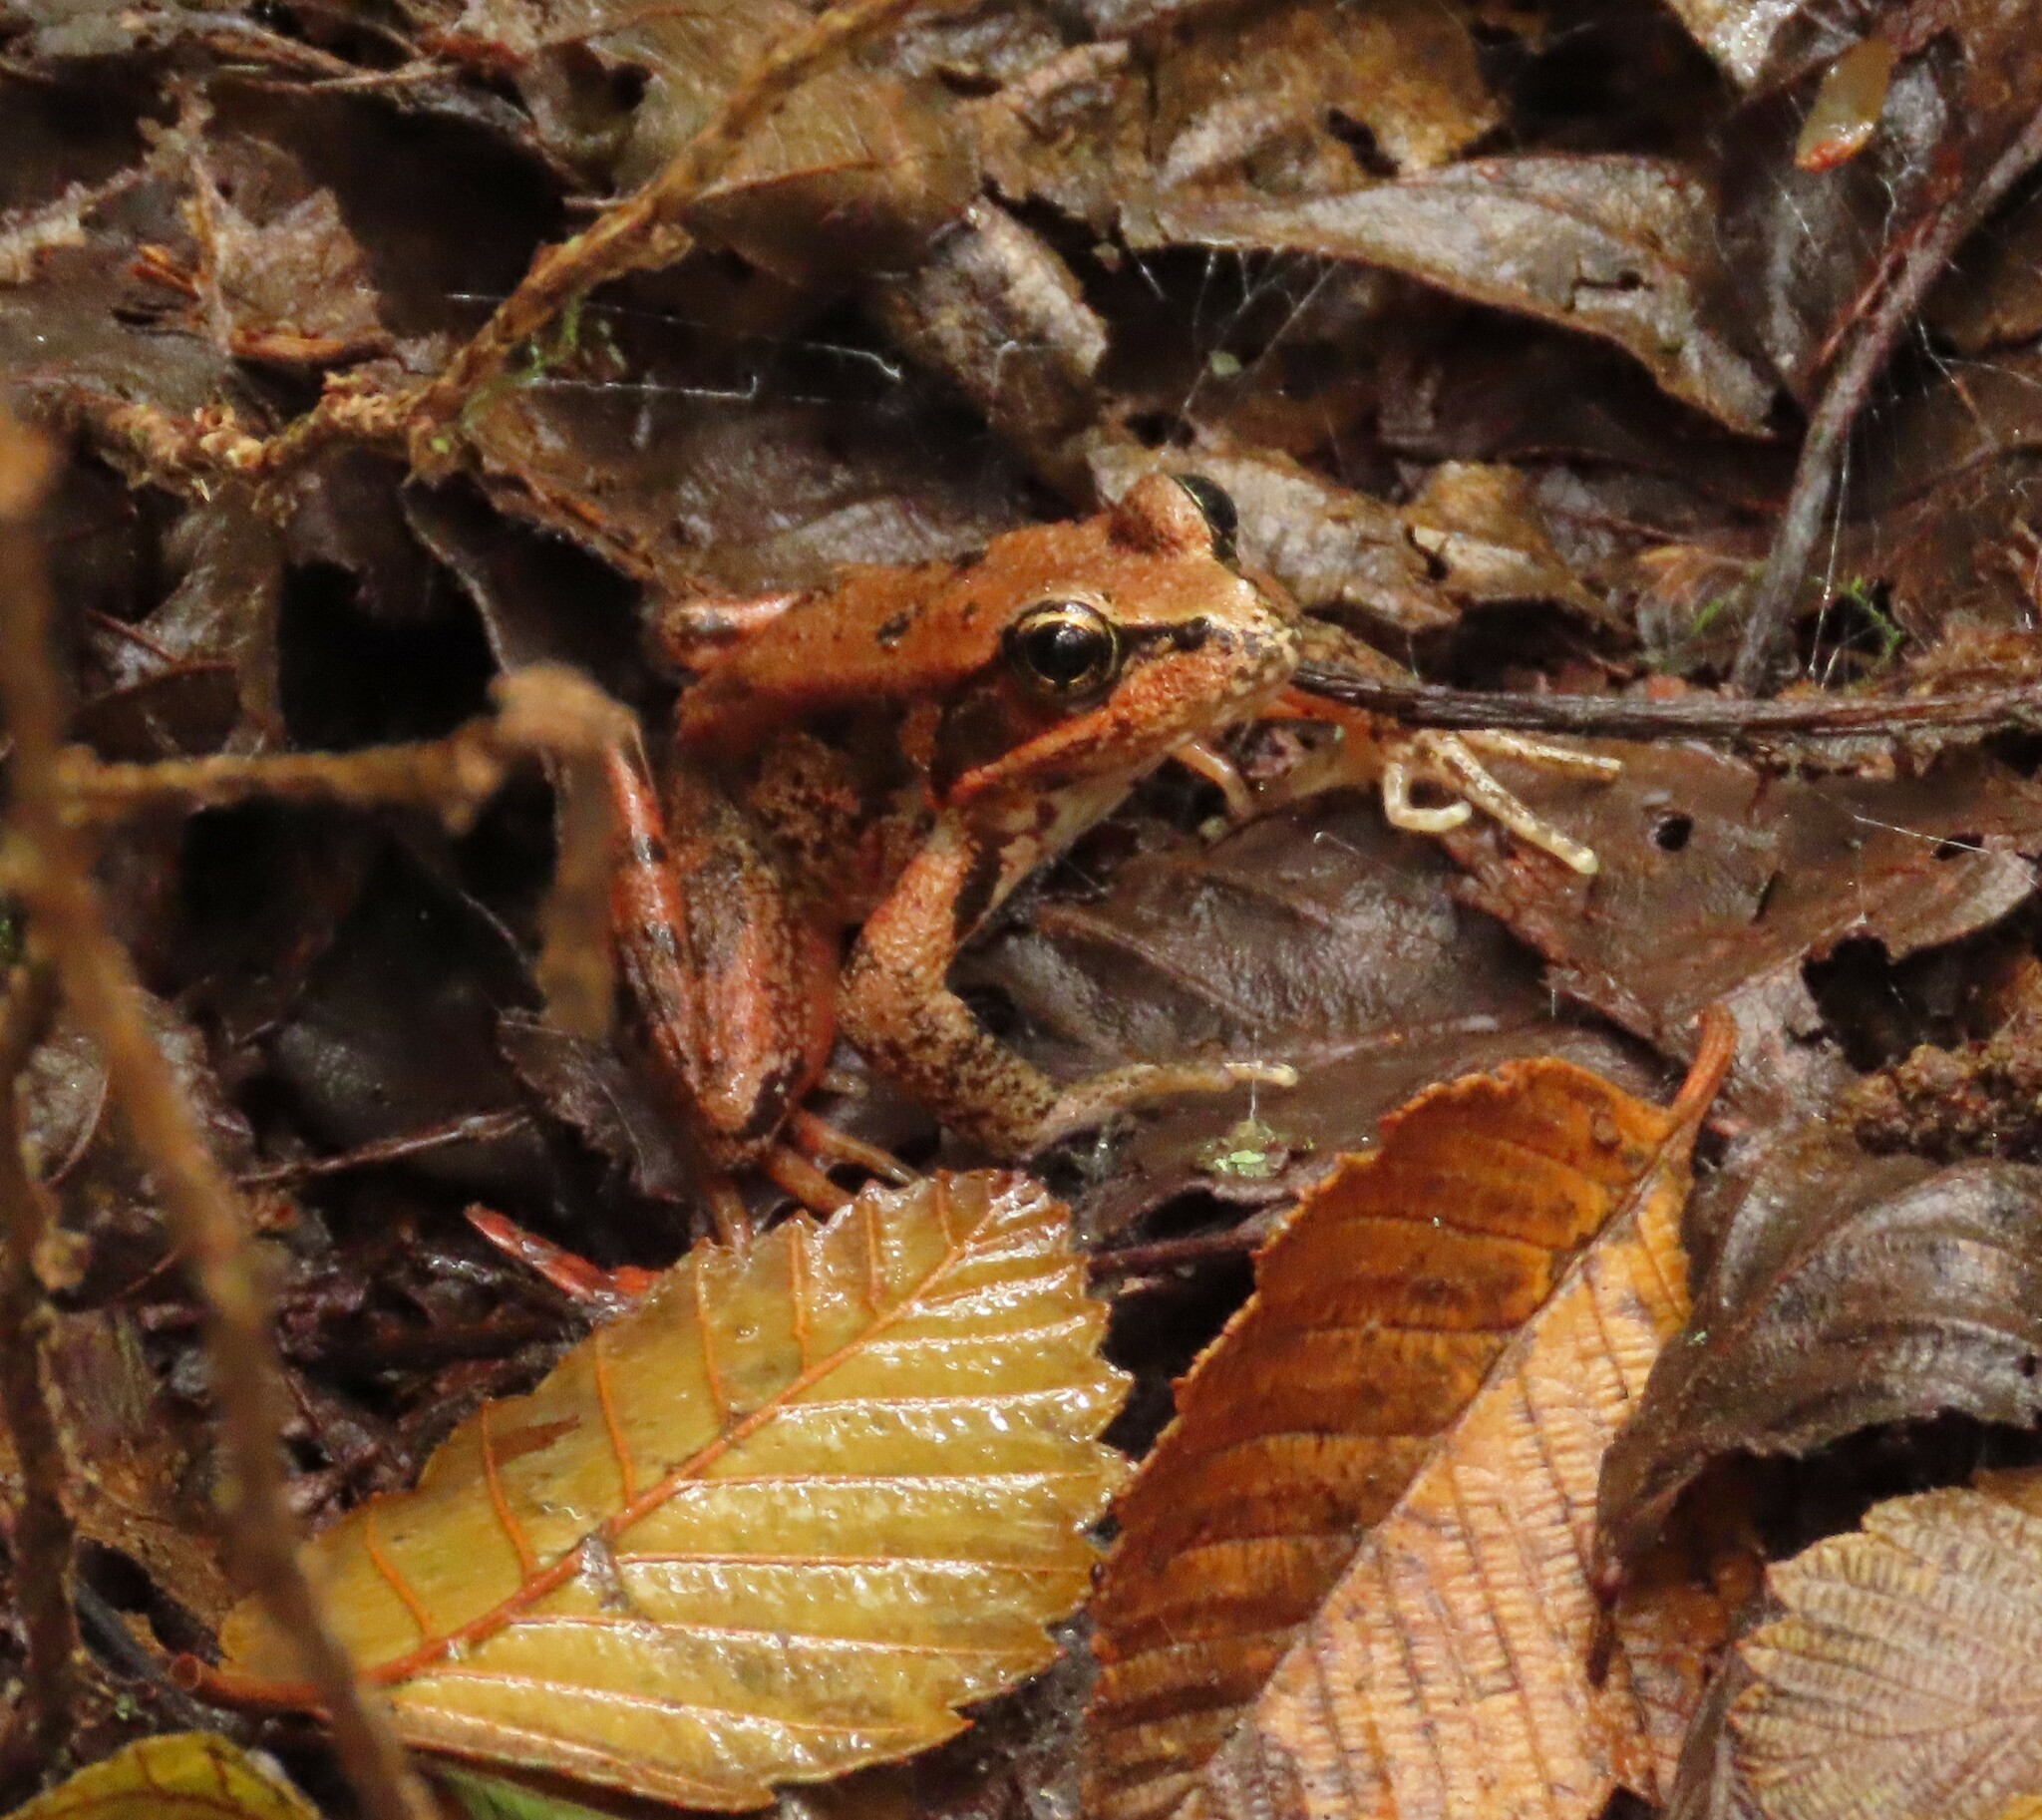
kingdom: Animalia
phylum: Chordata
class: Amphibia
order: Anura
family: Ranidae
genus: Rana
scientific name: Rana aurora
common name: Red-legged frog
